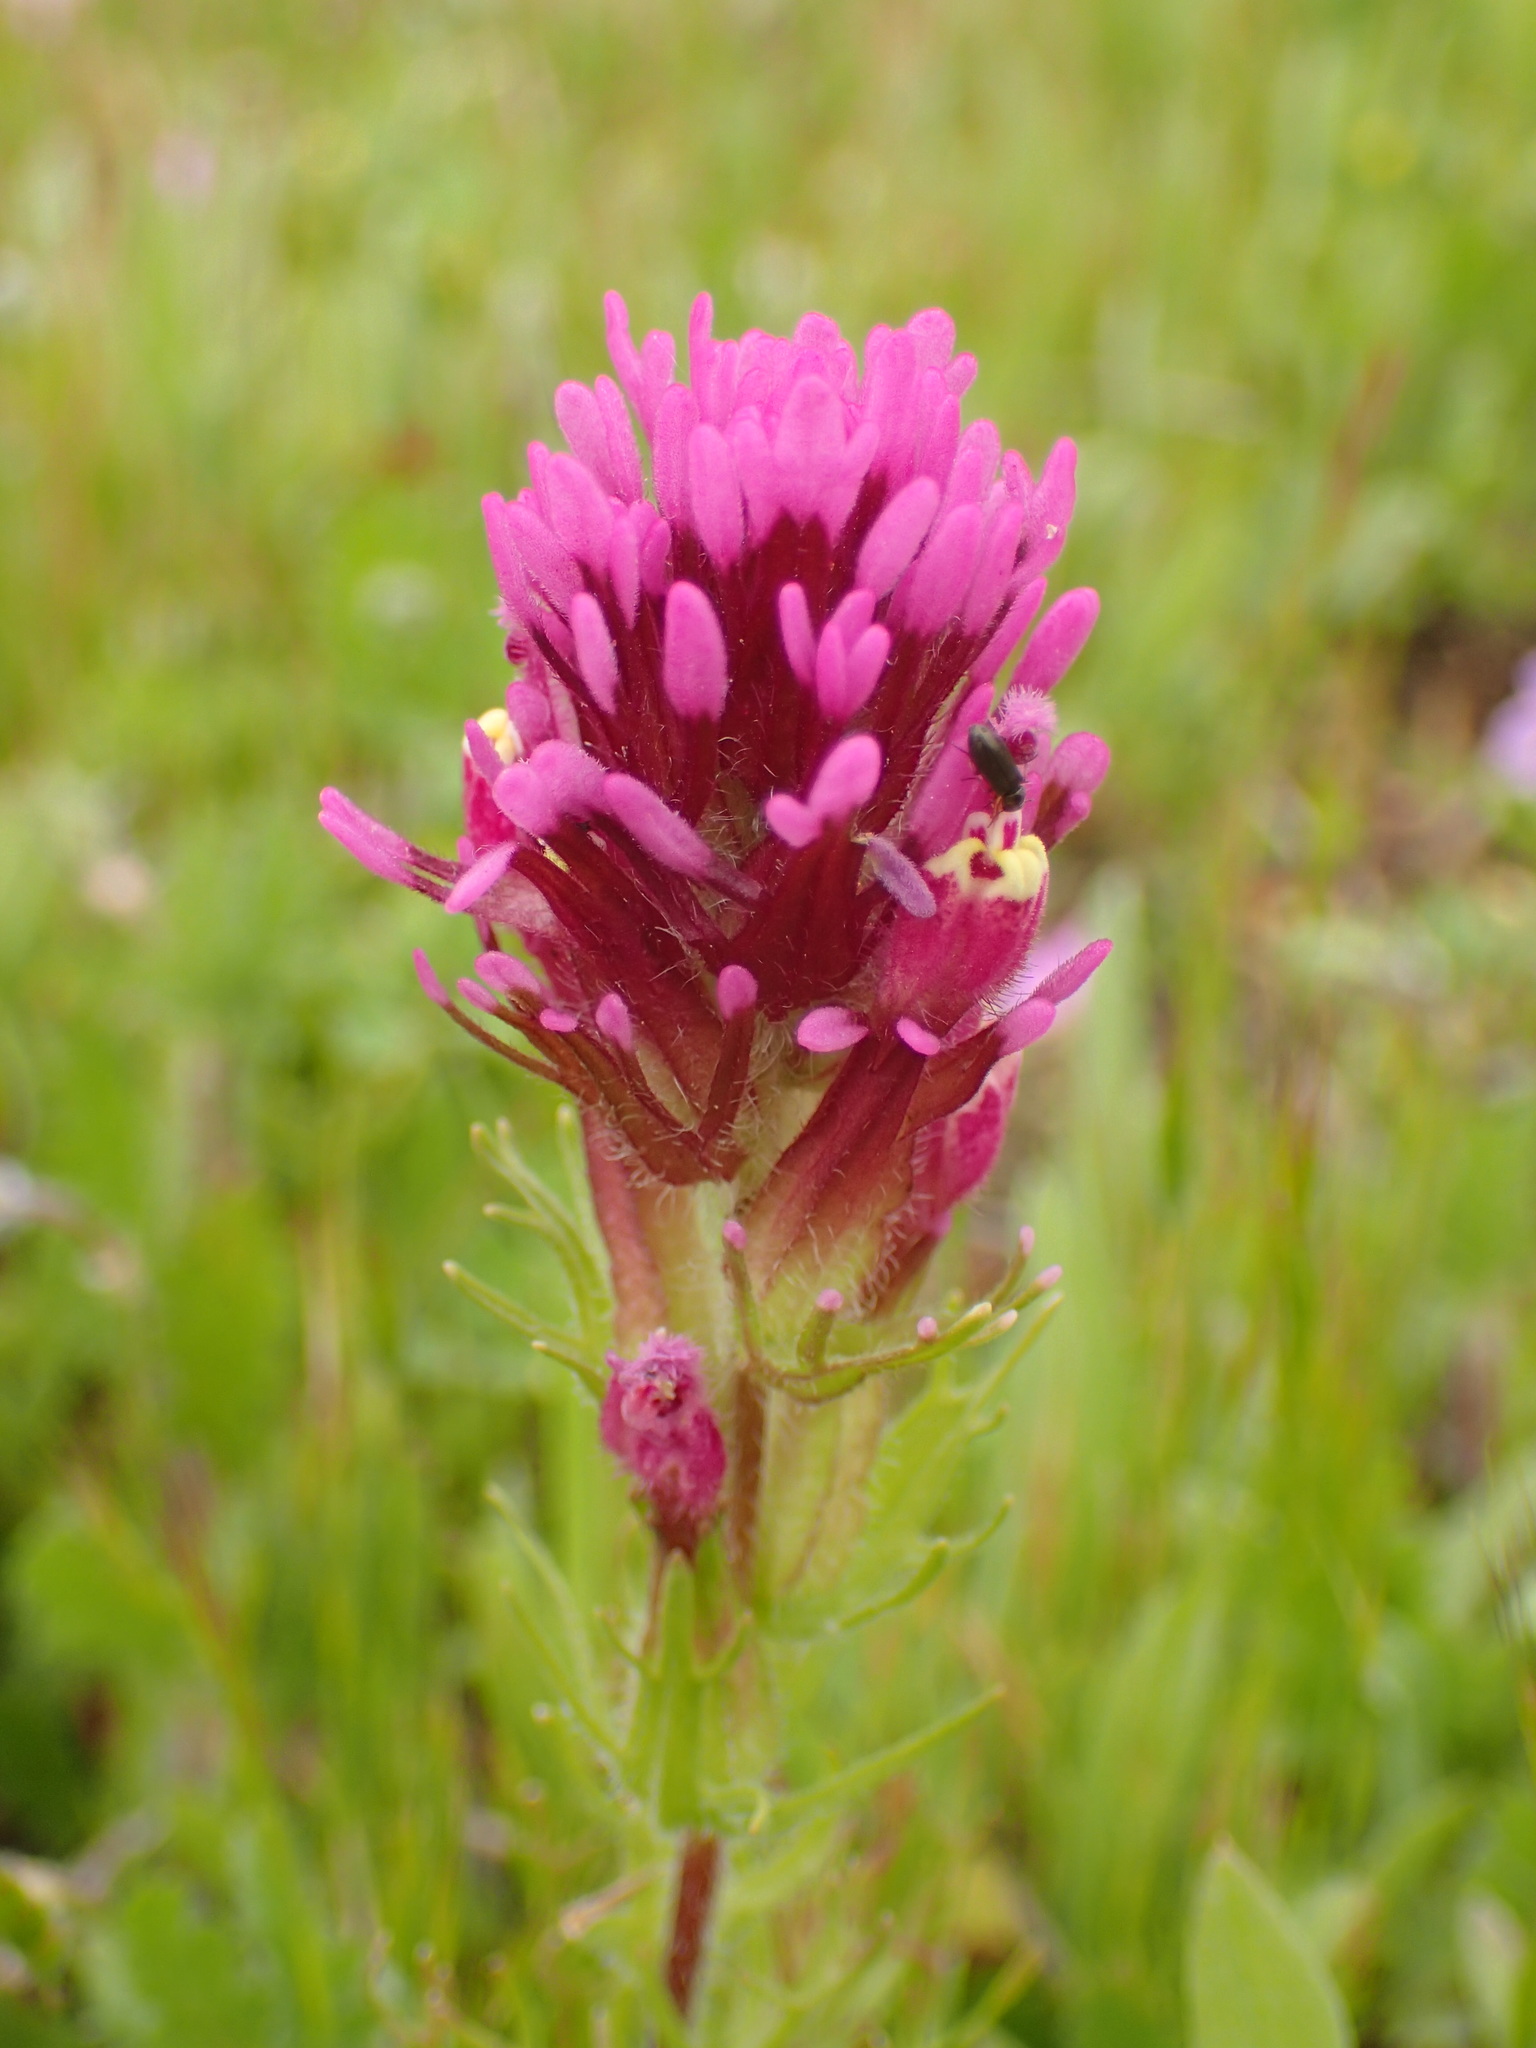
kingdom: Plantae
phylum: Tracheophyta
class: Magnoliopsida
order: Lamiales
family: Orobanchaceae
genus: Castilleja
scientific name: Castilleja exserta
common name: Purple owl-clover
